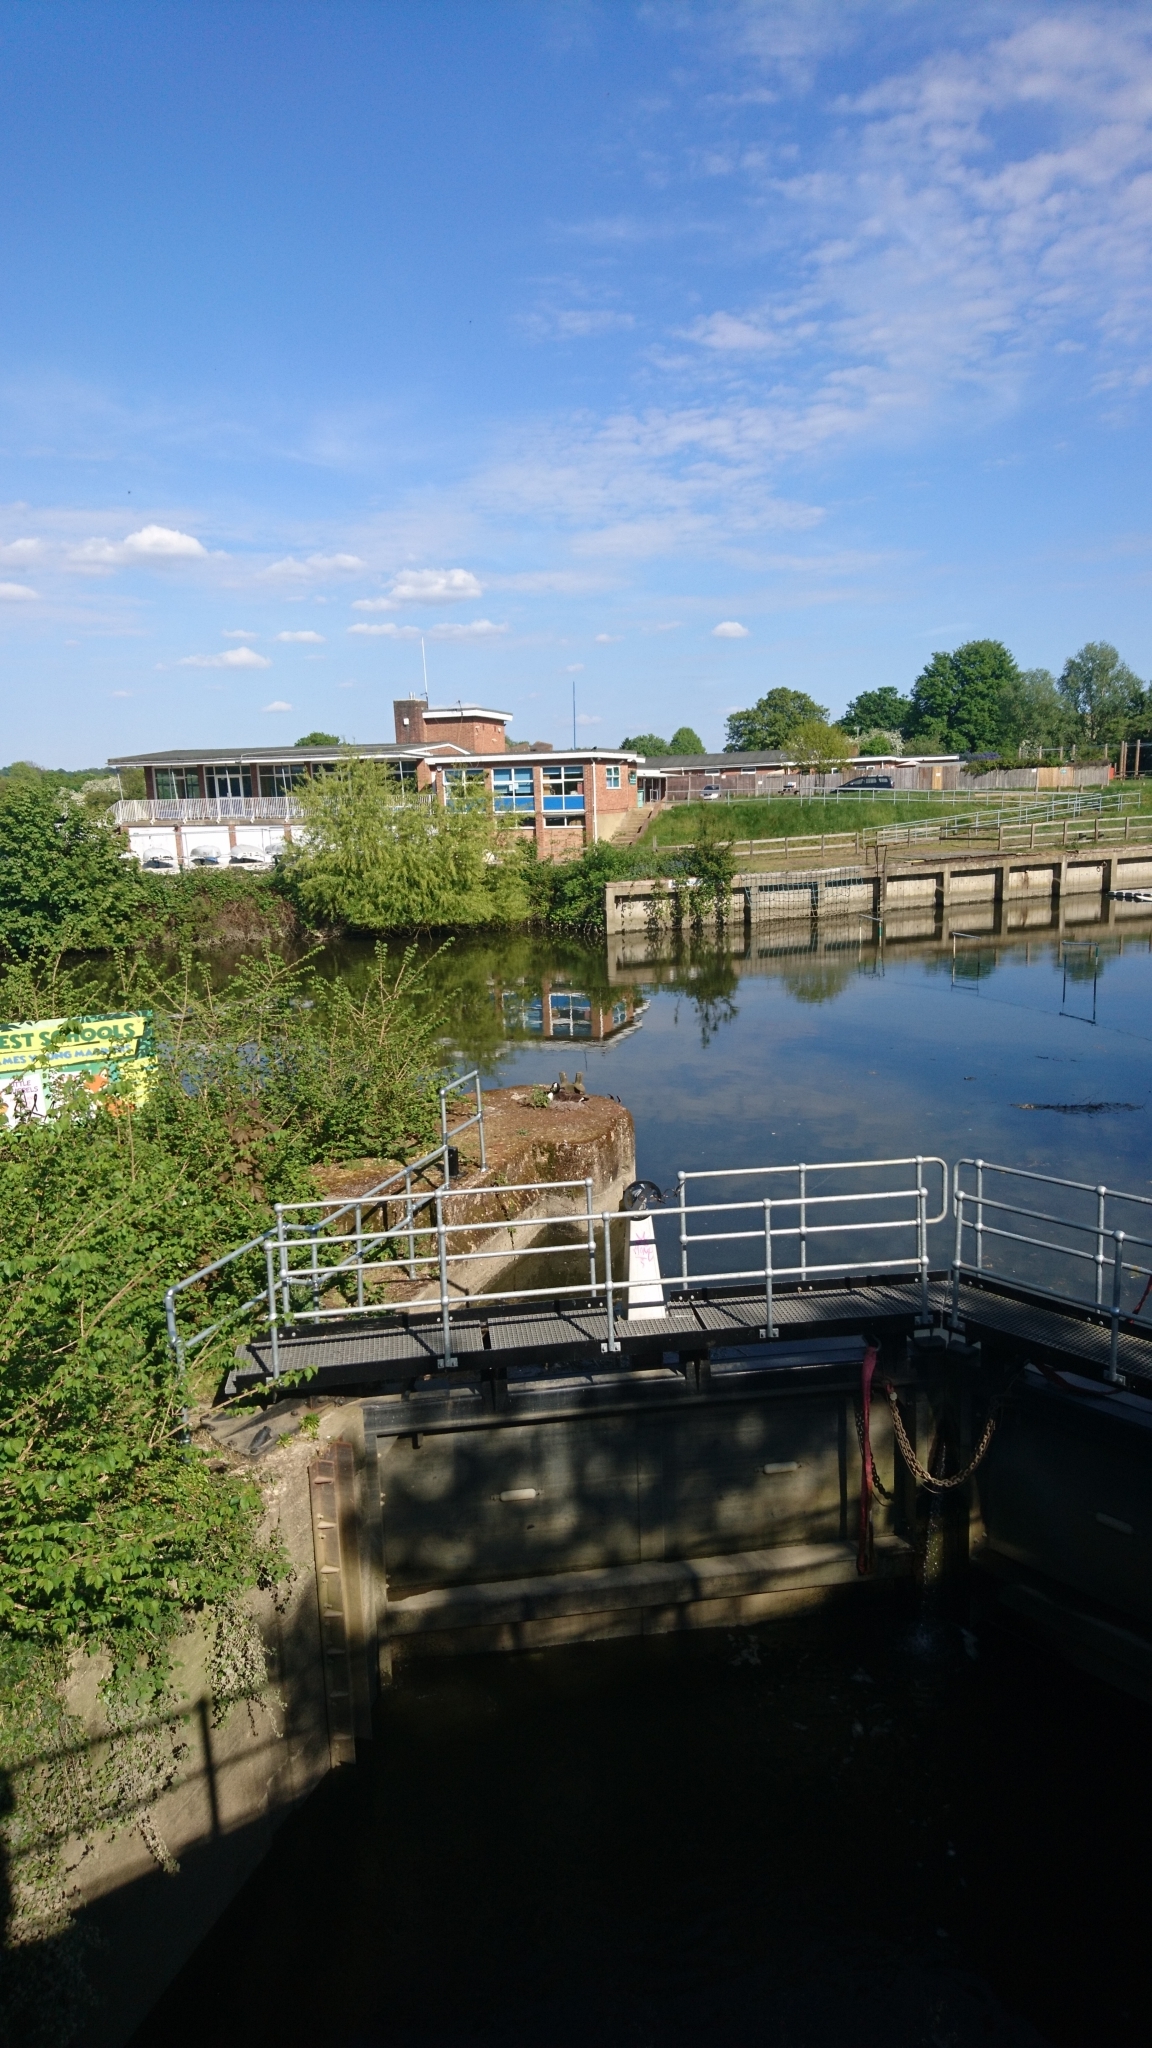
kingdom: Animalia
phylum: Chordata
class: Aves
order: Anseriformes
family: Anatidae
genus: Branta
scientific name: Branta canadensis
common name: Canada goose
